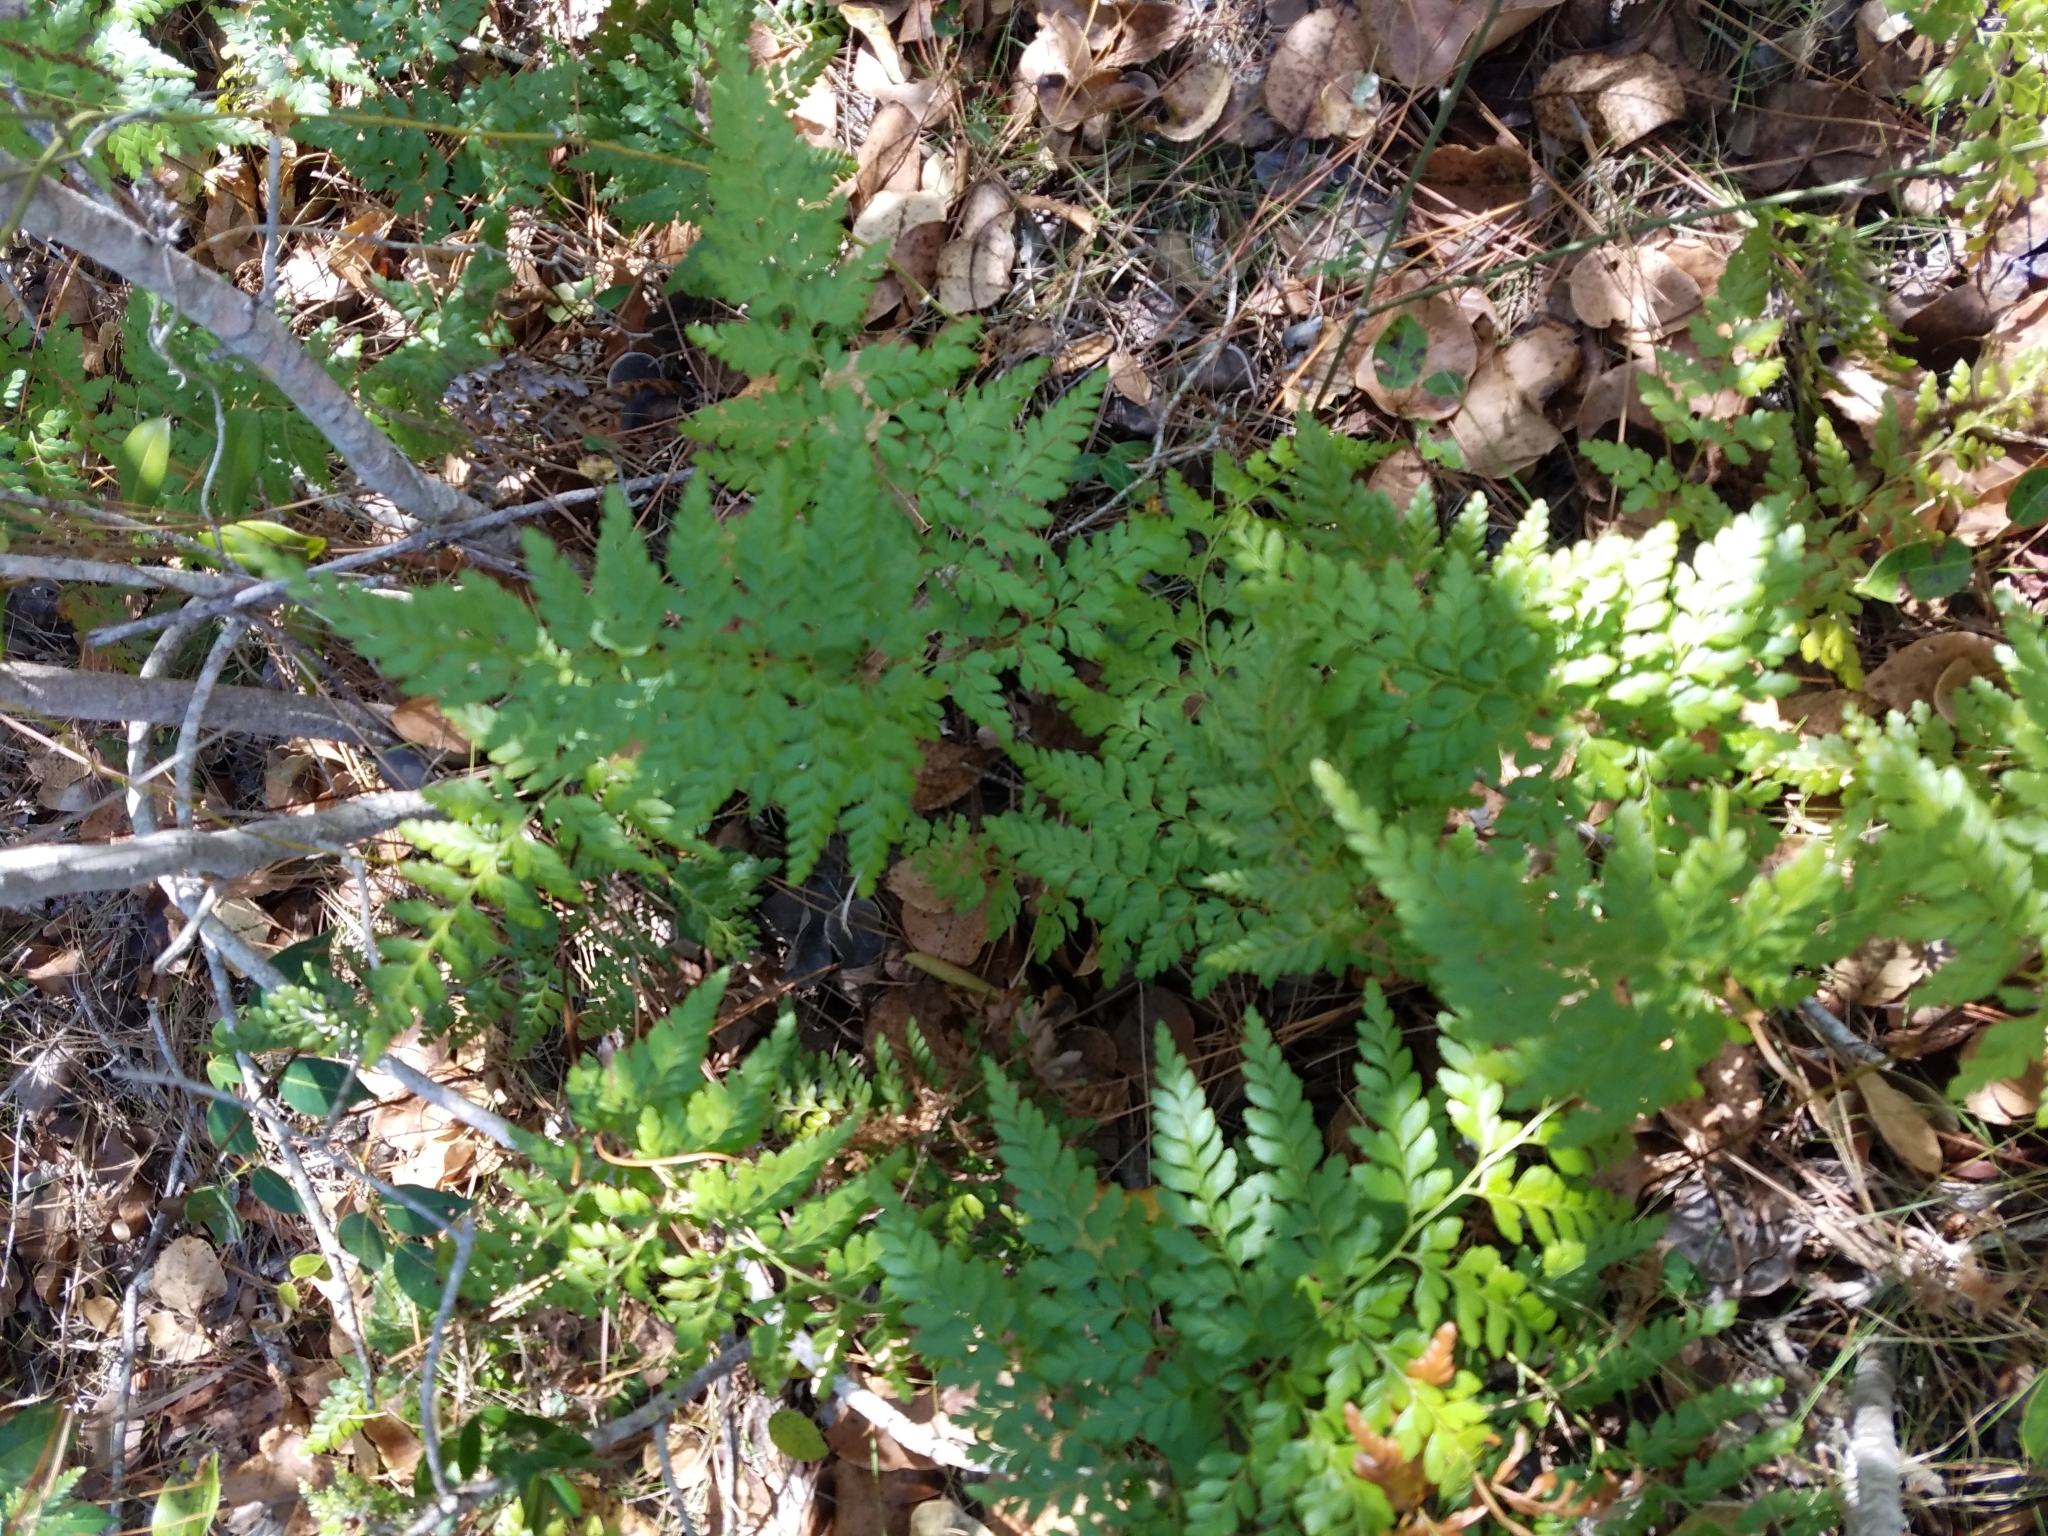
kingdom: Plantae
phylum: Tracheophyta
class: Polypodiopsida
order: Schizaeales
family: Anemiaceae
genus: Anemia
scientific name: Anemia adiantifolia
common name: Pine fern
